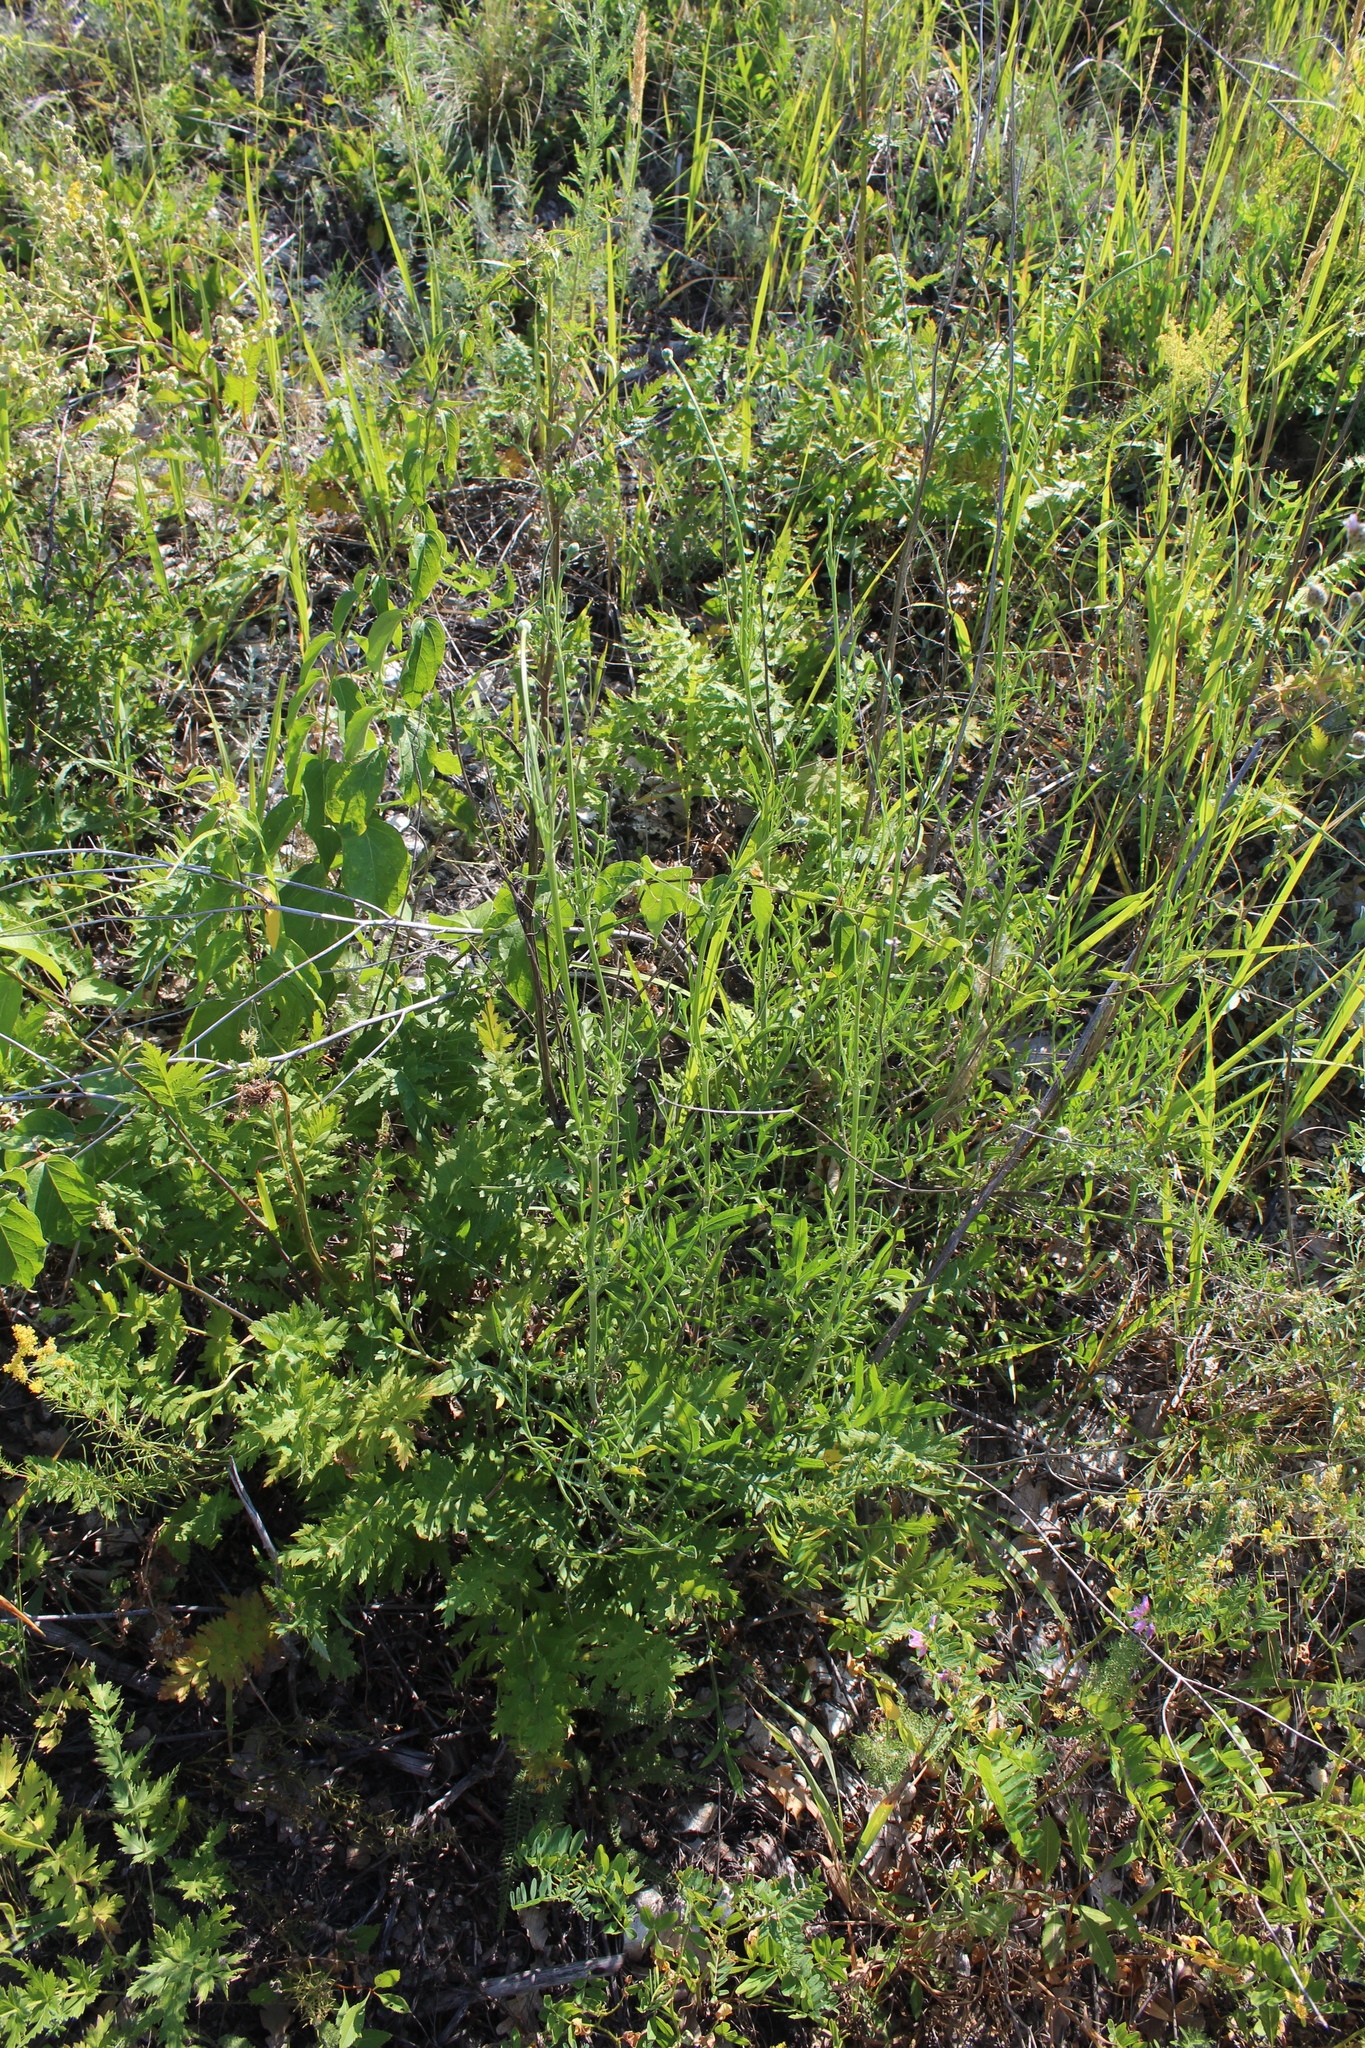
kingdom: Plantae
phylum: Tracheophyta
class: Magnoliopsida
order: Dipsacales
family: Caprifoliaceae
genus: Cephalaria
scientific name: Cephalaria uralensis
